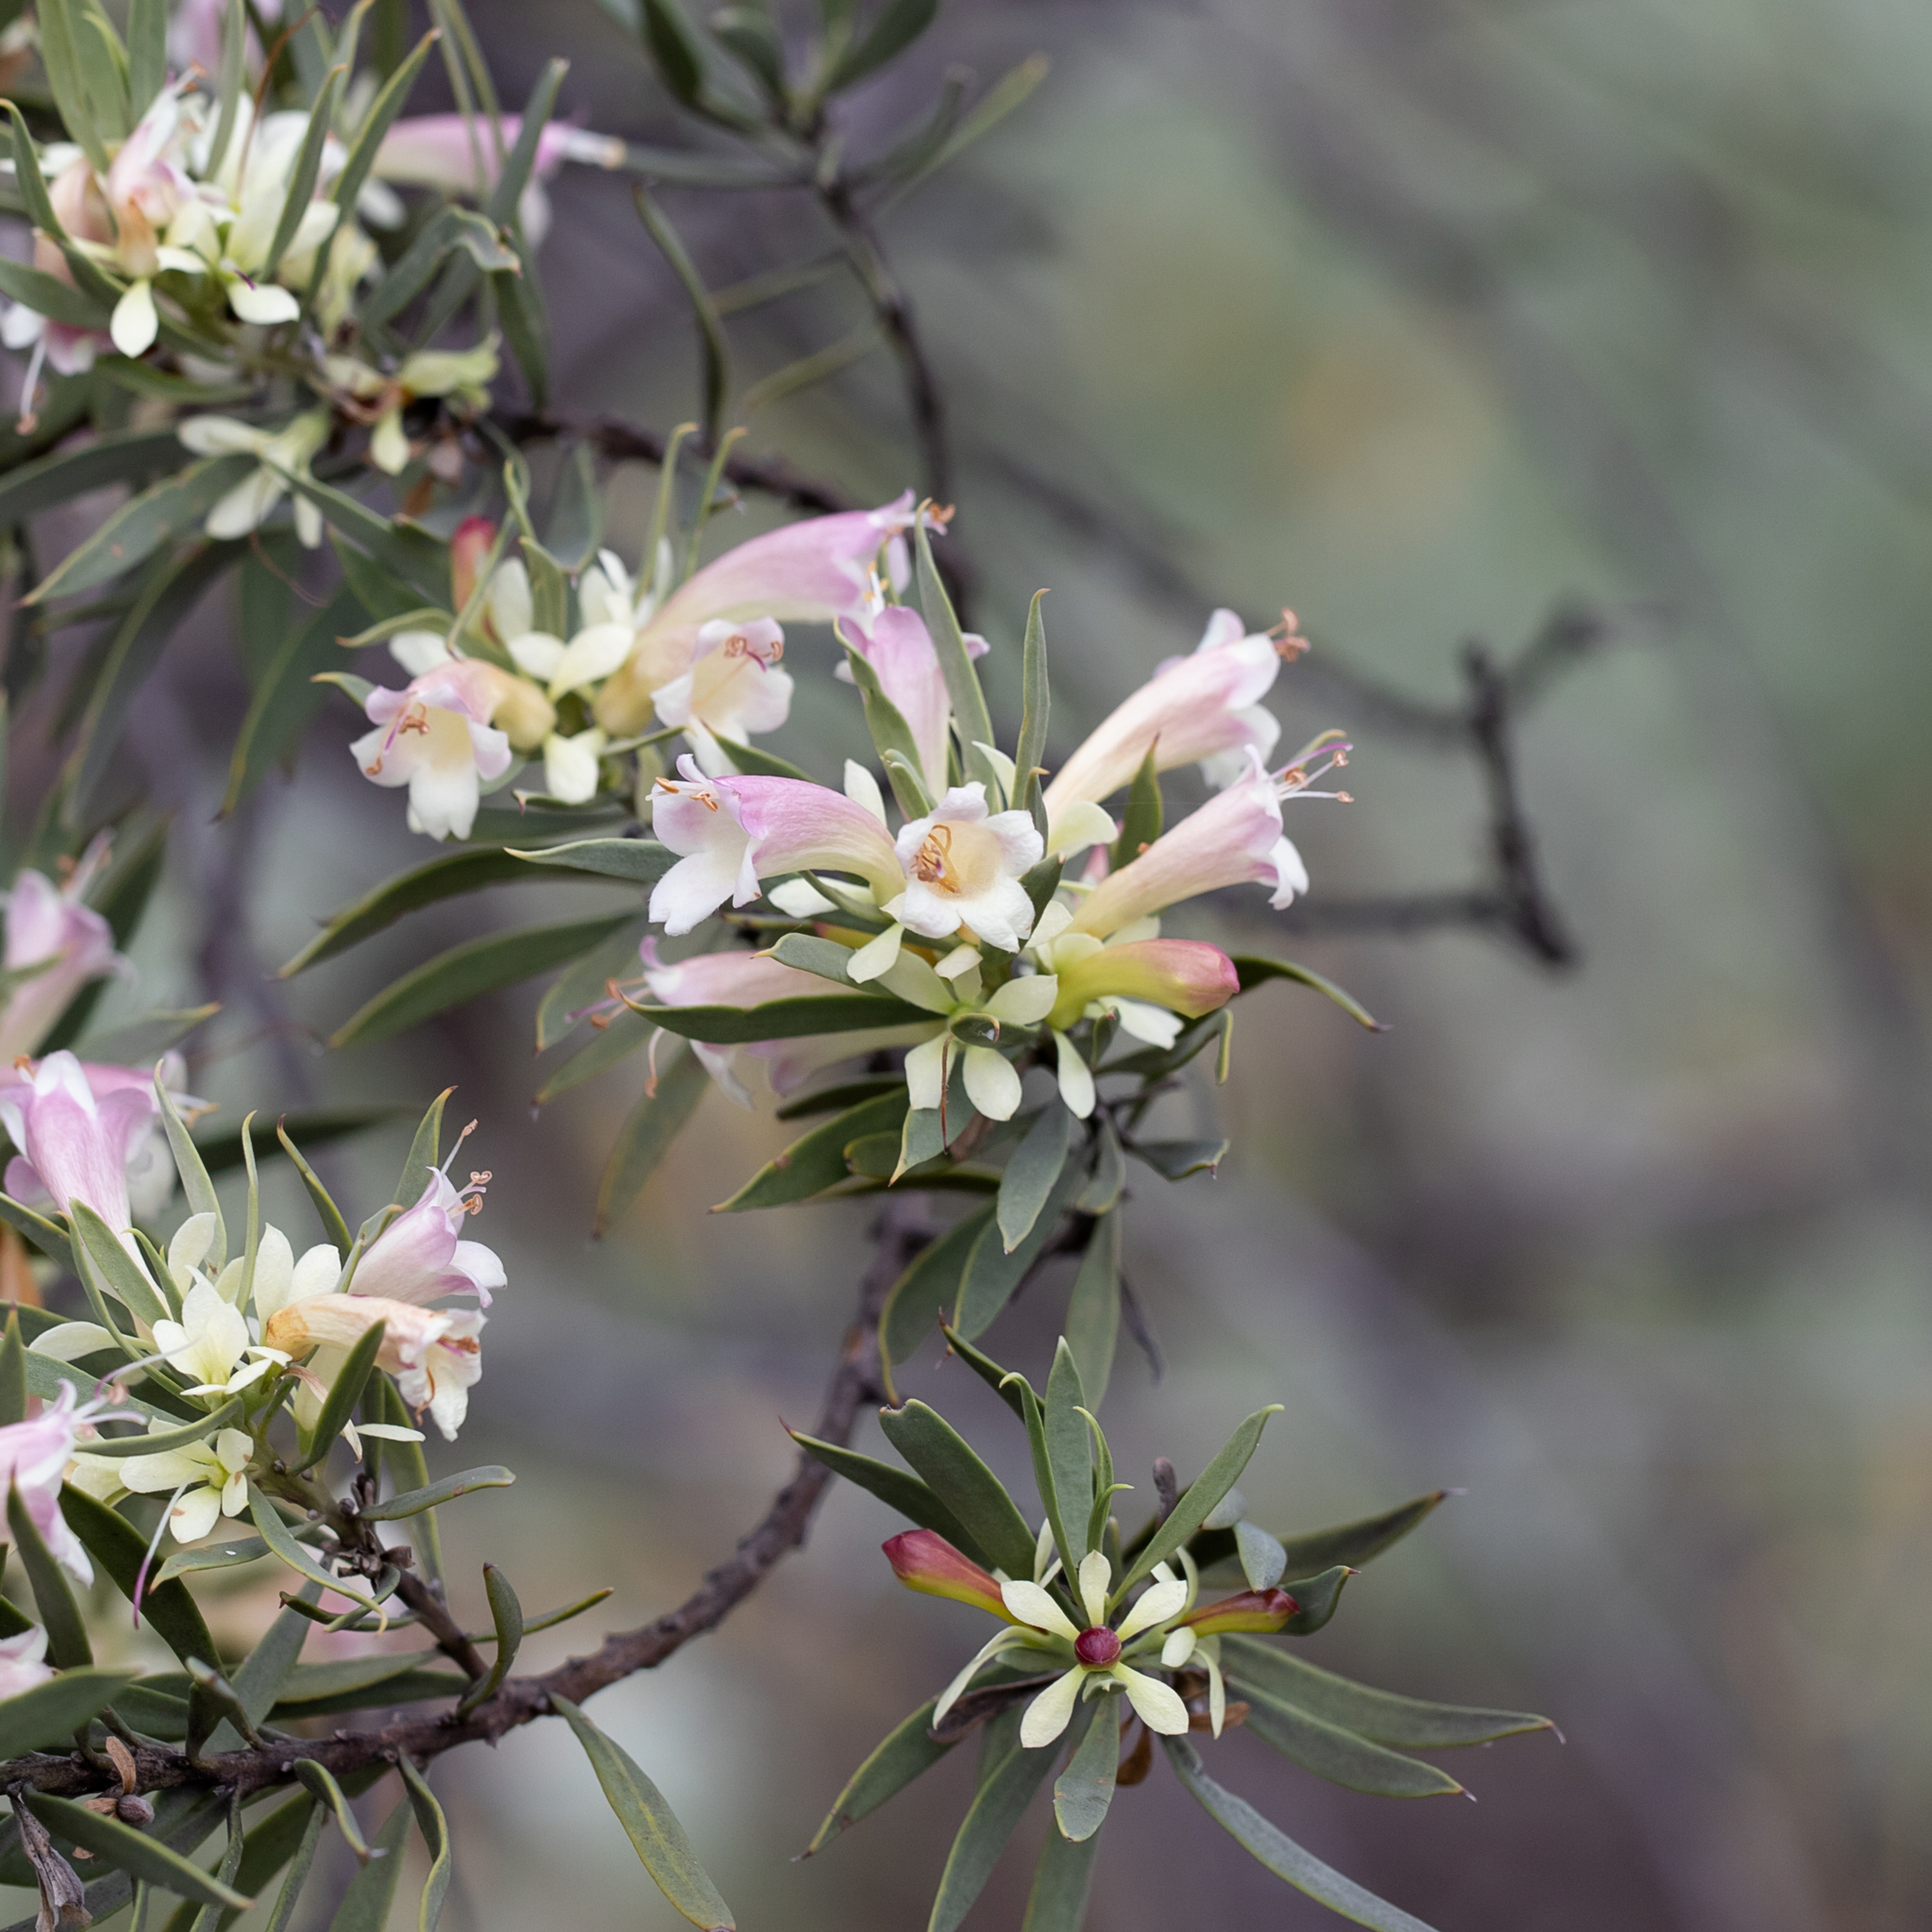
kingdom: Plantae
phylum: Tracheophyta
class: Magnoliopsida
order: Lamiales
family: Scrophulariaceae
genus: Eremophila
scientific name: Eremophila oppositifolia
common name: Mountain-sandalwood
